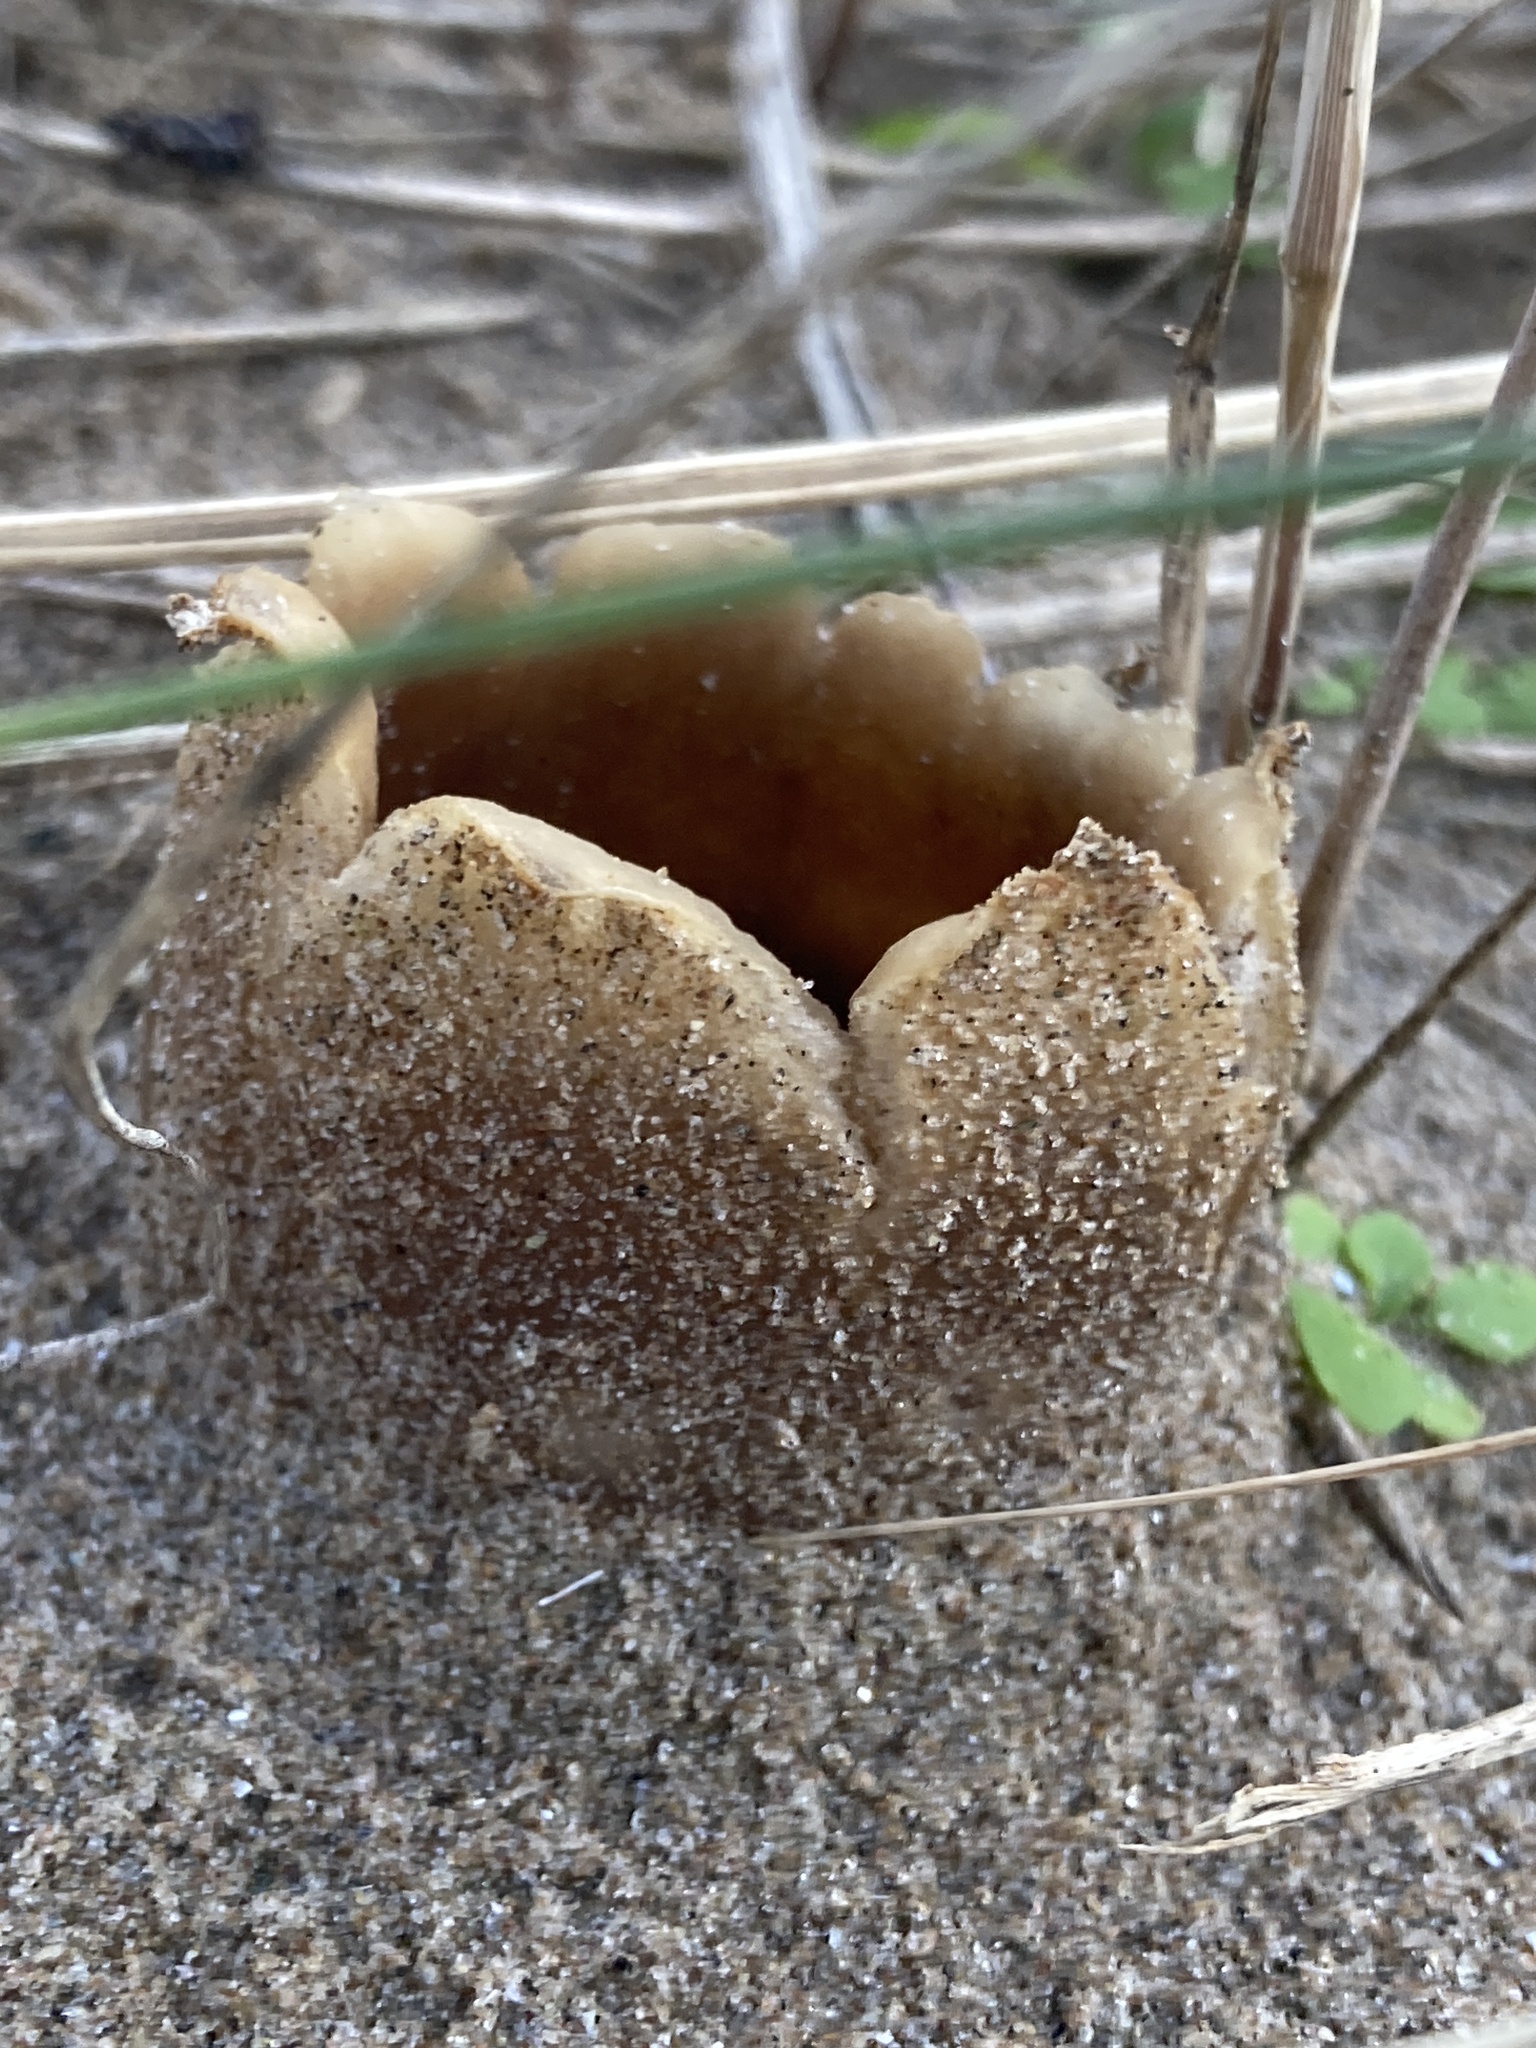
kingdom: Fungi
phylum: Ascomycota
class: Pezizomycetes
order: Pezizales
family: Pezizaceae
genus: Peziza
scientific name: Peziza ammophila
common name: Dune cup
